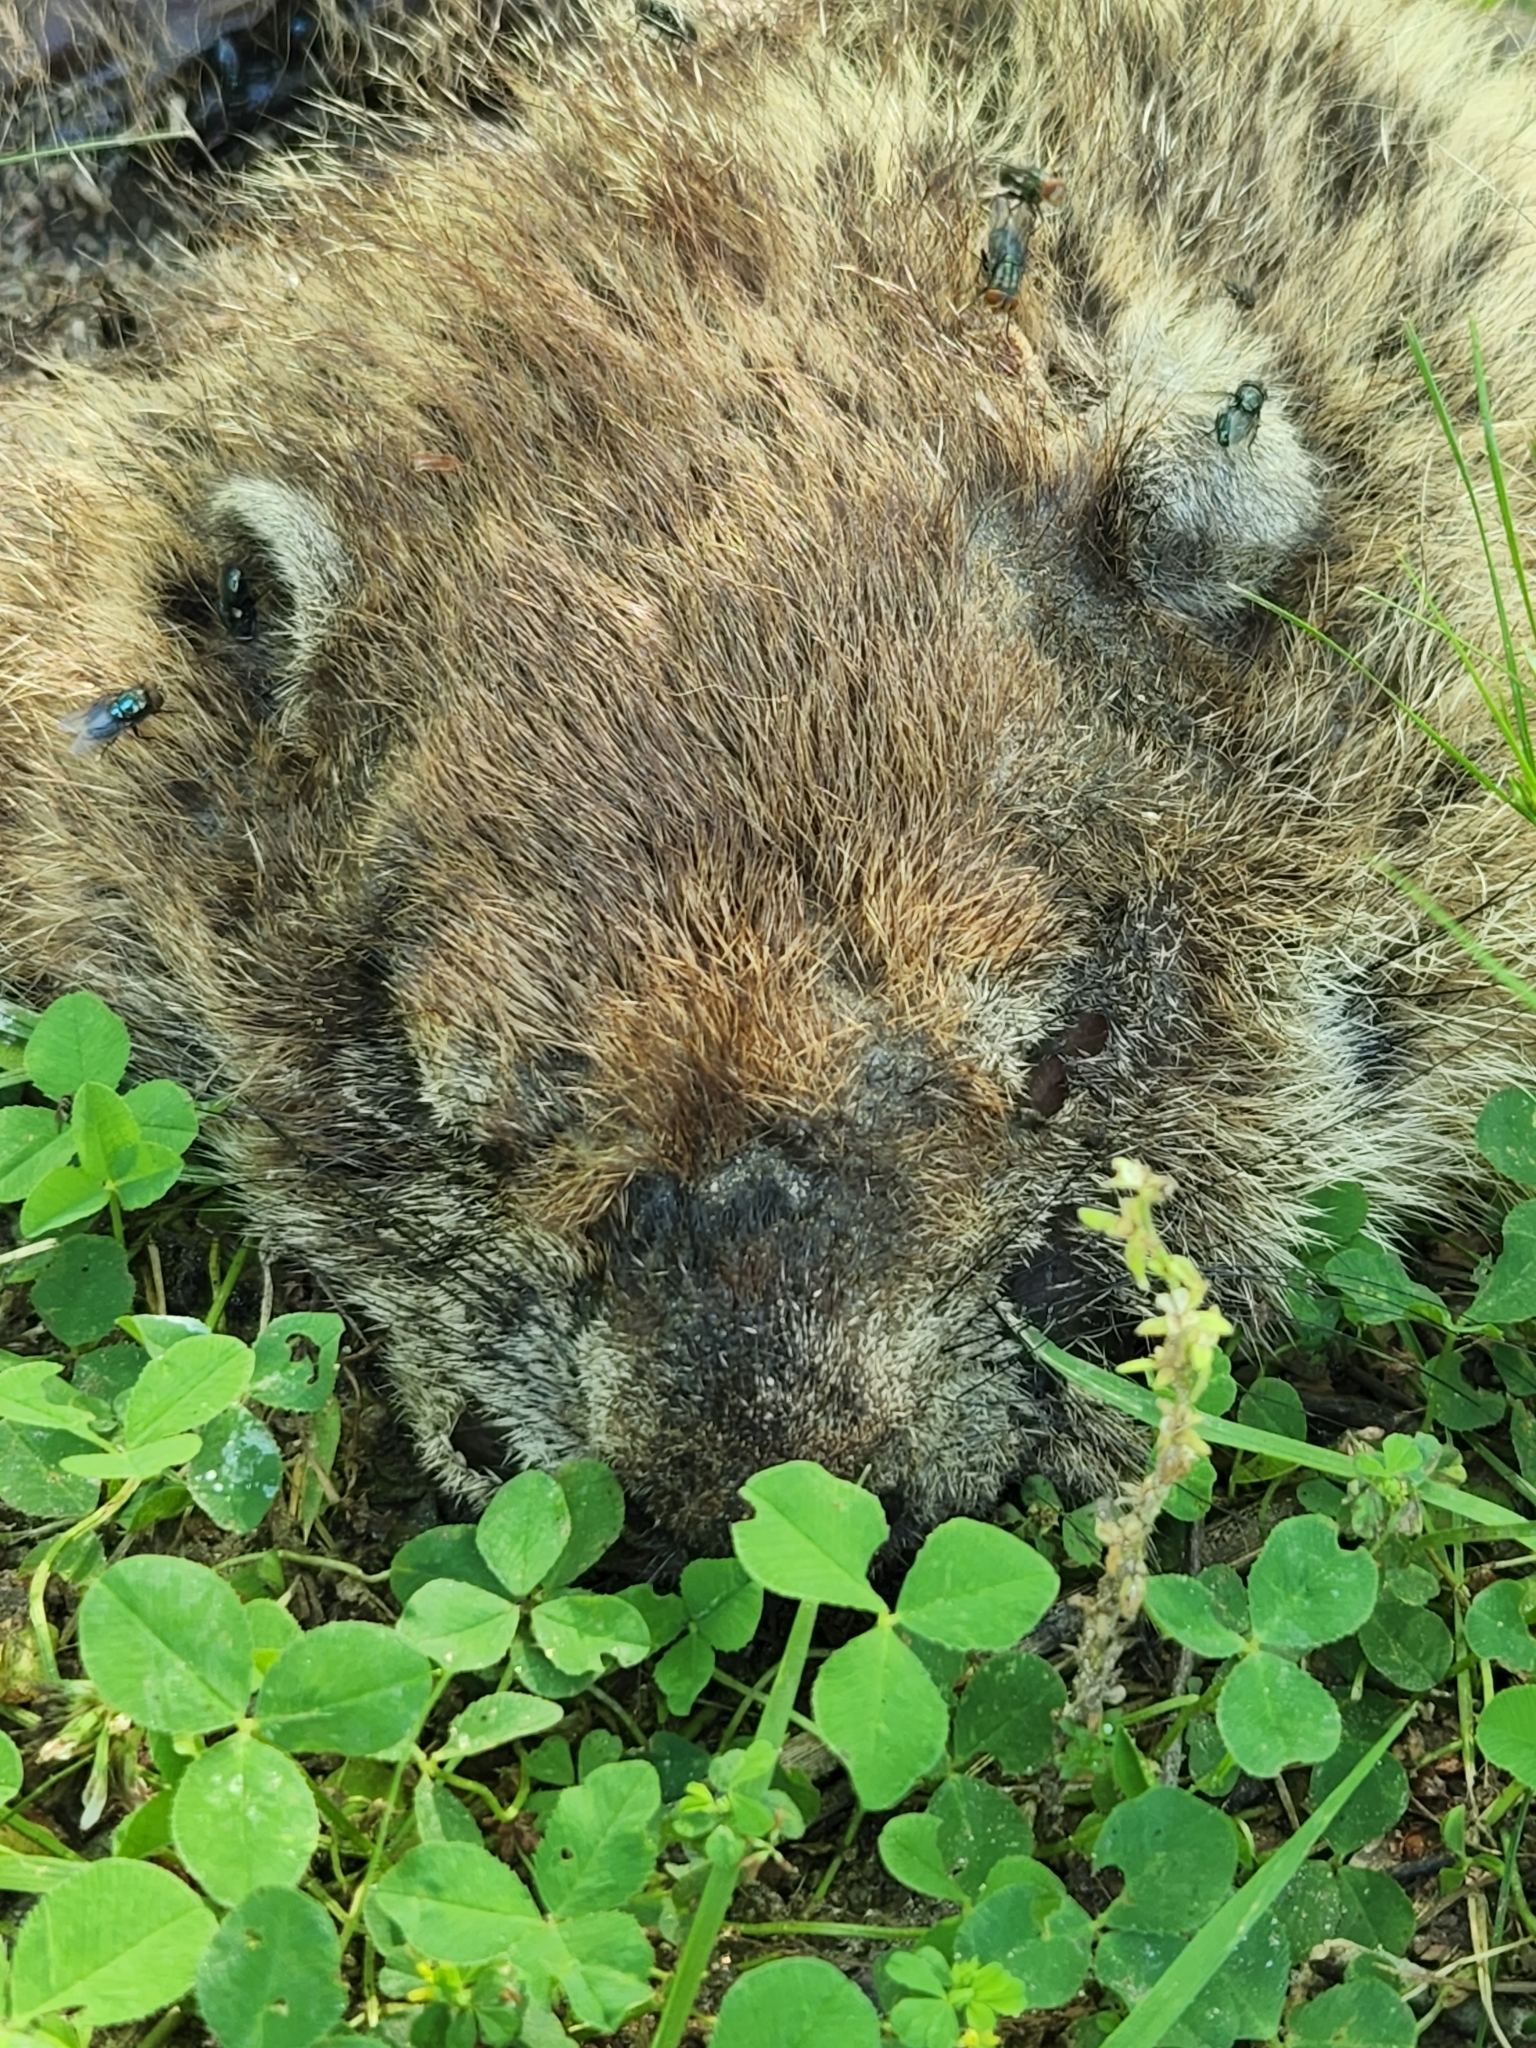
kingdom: Animalia
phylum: Chordata
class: Mammalia
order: Rodentia
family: Sciuridae
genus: Marmota
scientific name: Marmota monax
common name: Groundhog
